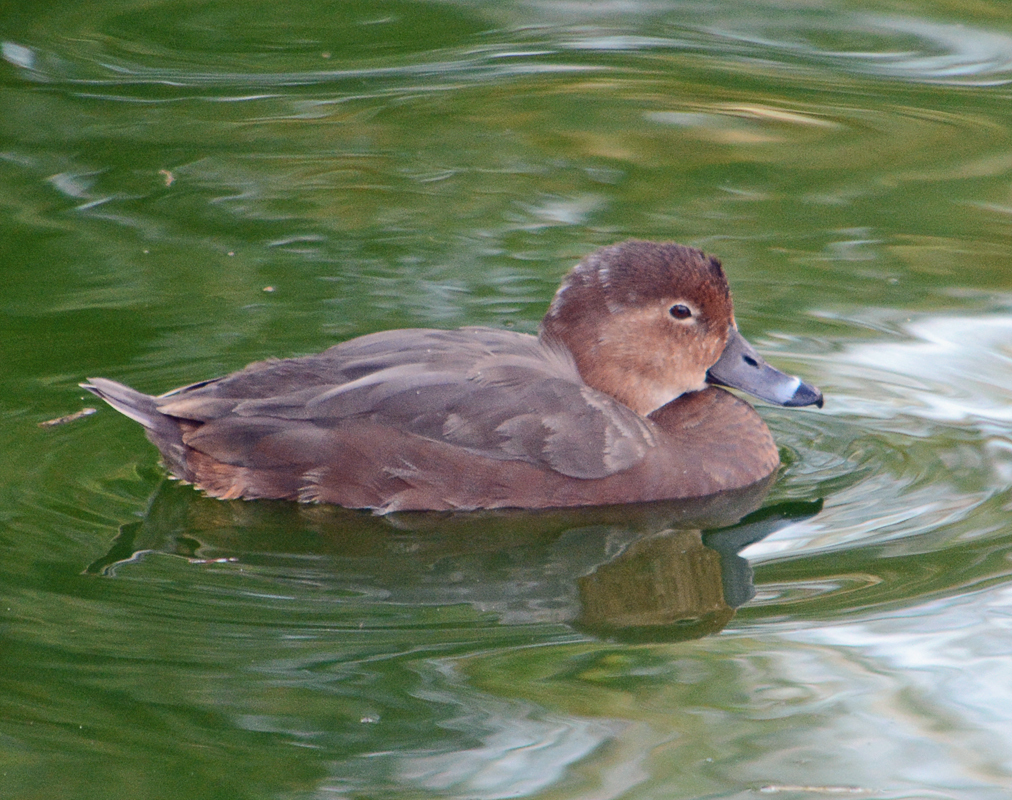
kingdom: Animalia
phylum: Chordata
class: Aves
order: Anseriformes
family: Anatidae
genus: Aythya
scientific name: Aythya americana
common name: Redhead
